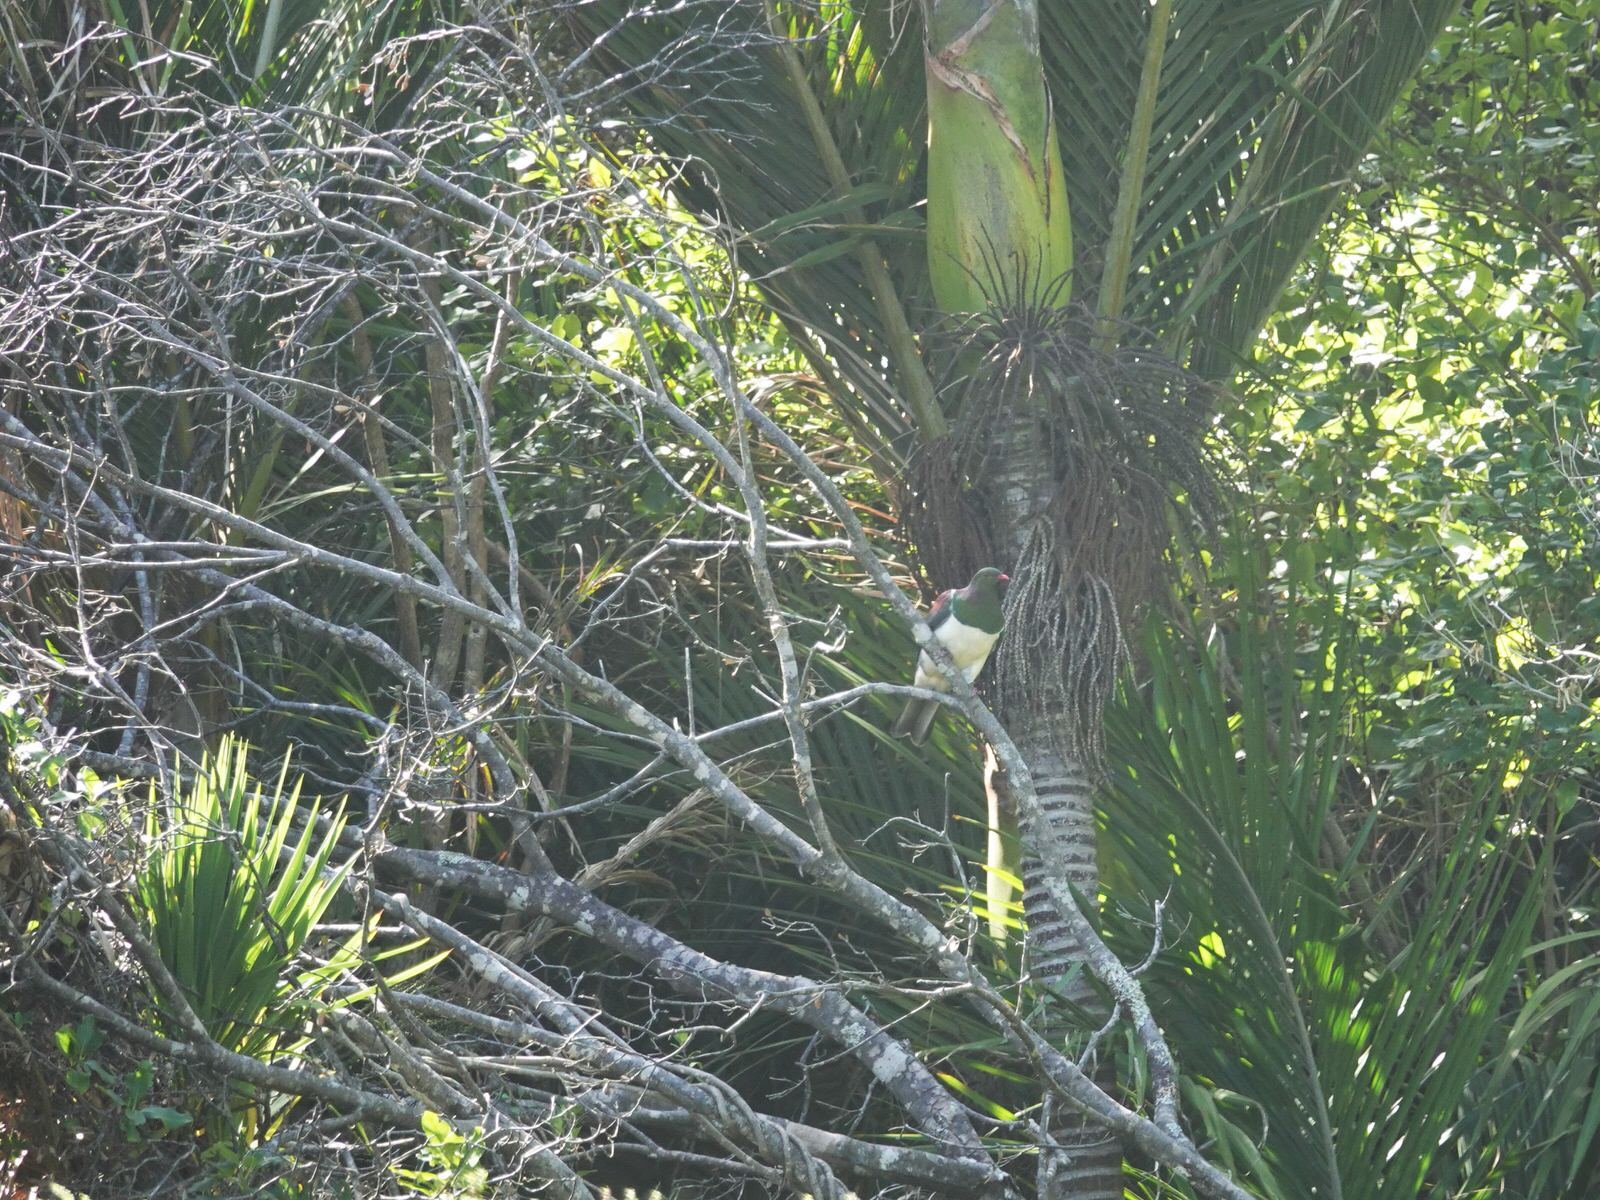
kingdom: Animalia
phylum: Chordata
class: Aves
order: Columbiformes
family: Columbidae
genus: Hemiphaga
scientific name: Hemiphaga novaeseelandiae
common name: New zealand pigeon
